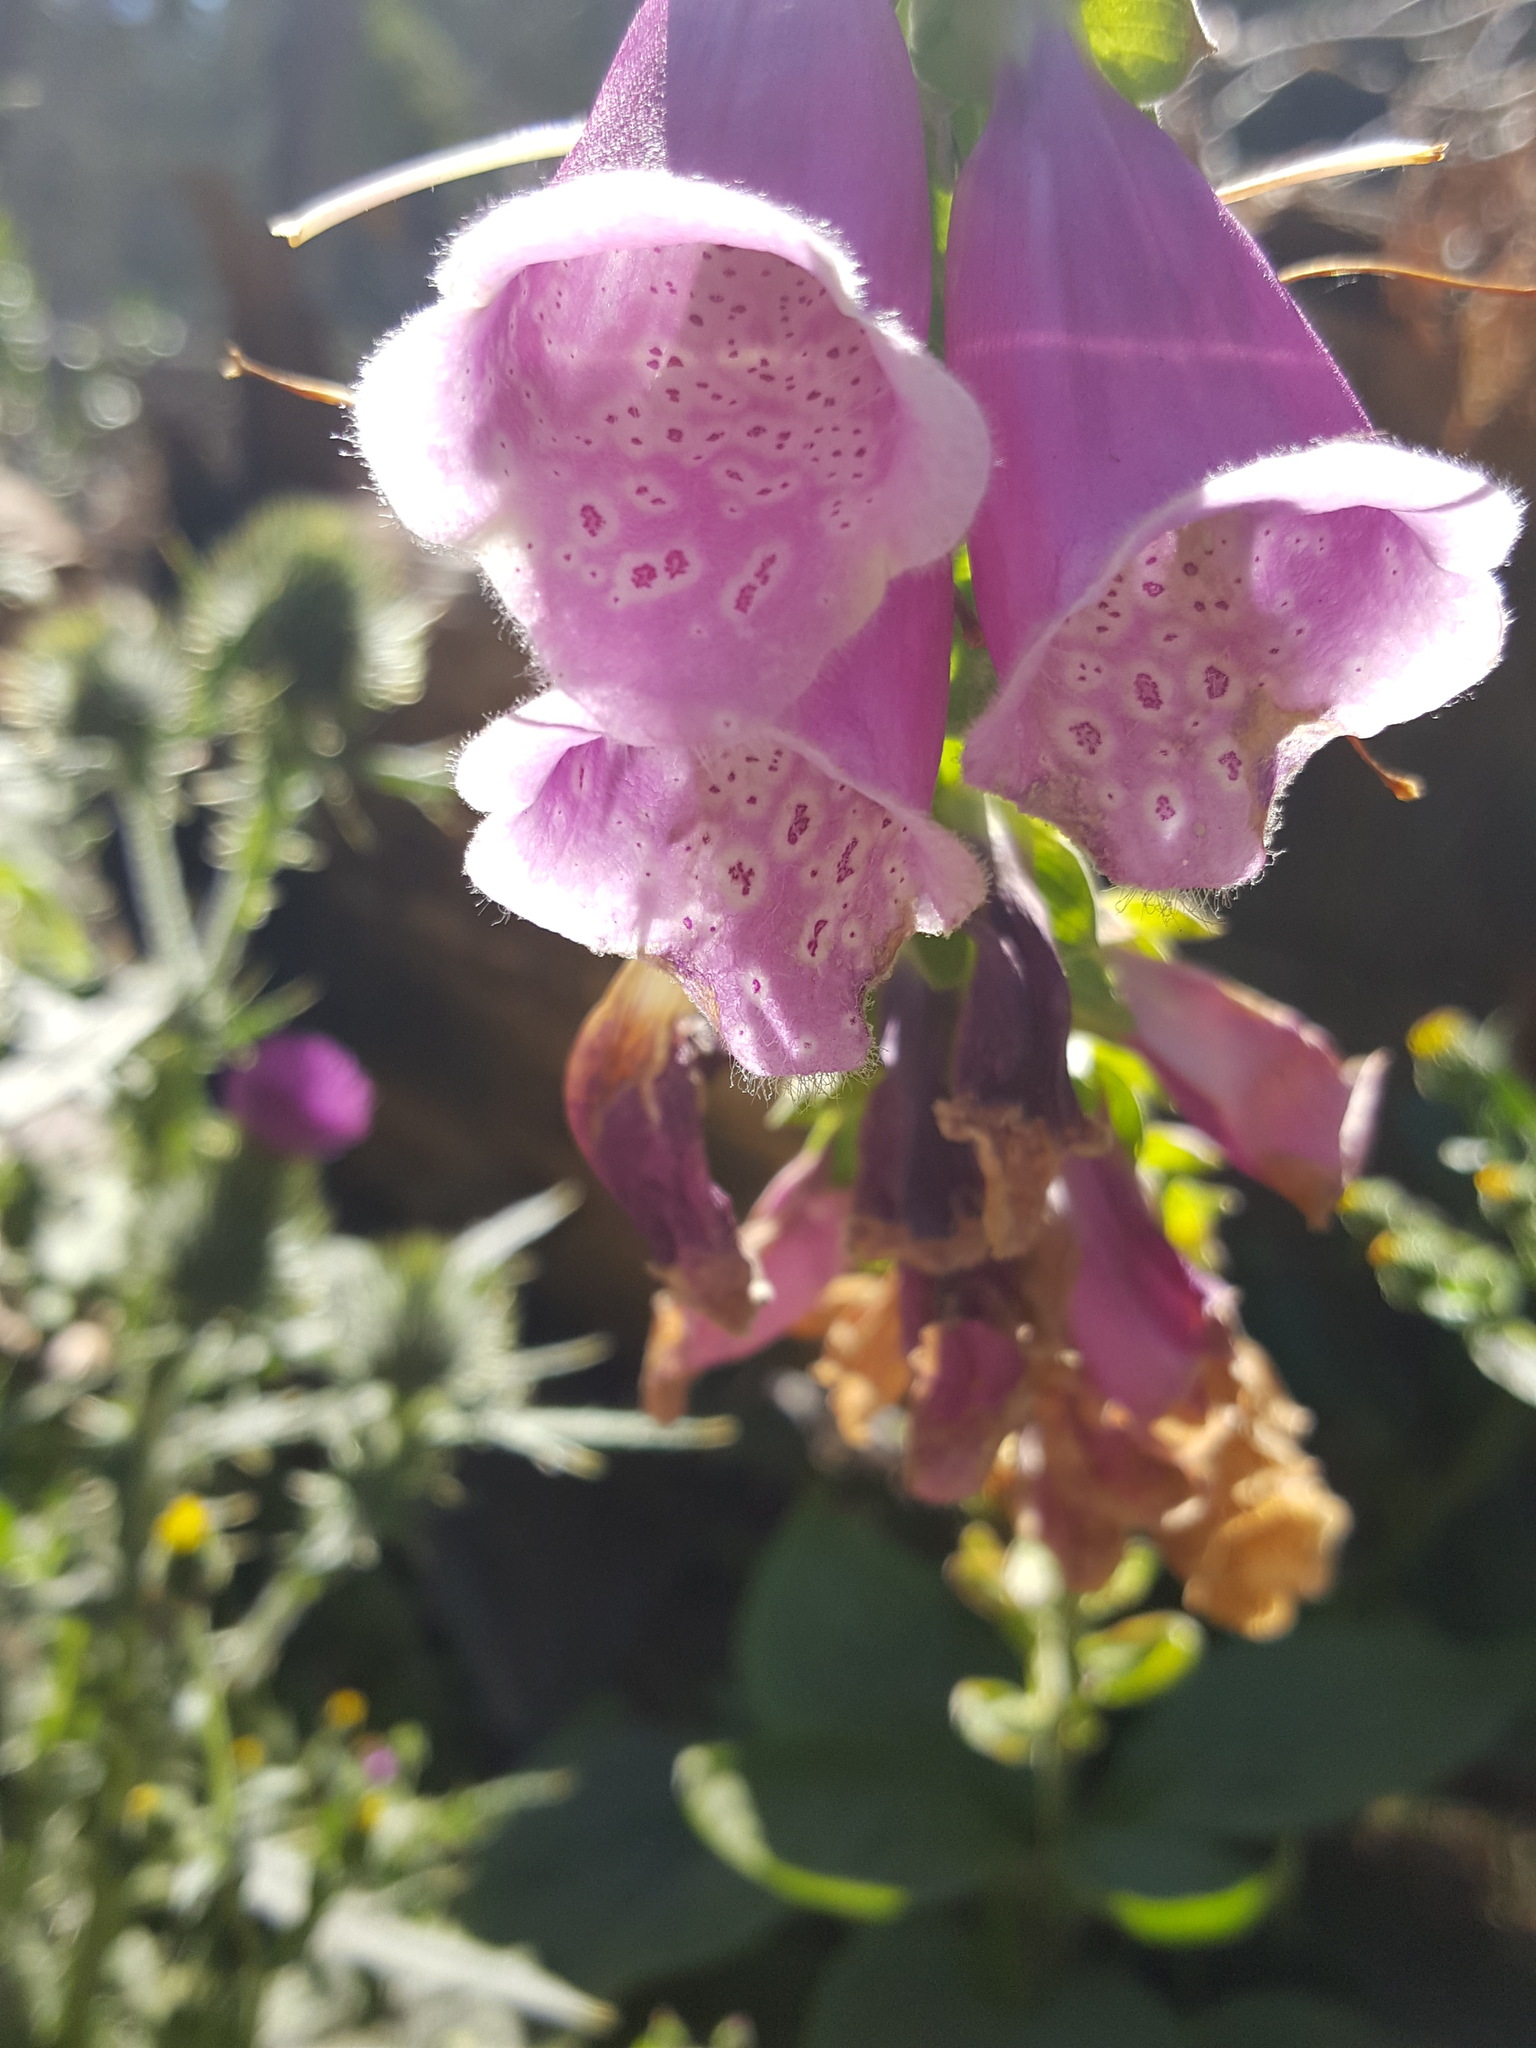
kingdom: Plantae
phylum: Tracheophyta
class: Magnoliopsida
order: Lamiales
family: Plantaginaceae
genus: Digitalis
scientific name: Digitalis purpurea
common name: Foxglove
